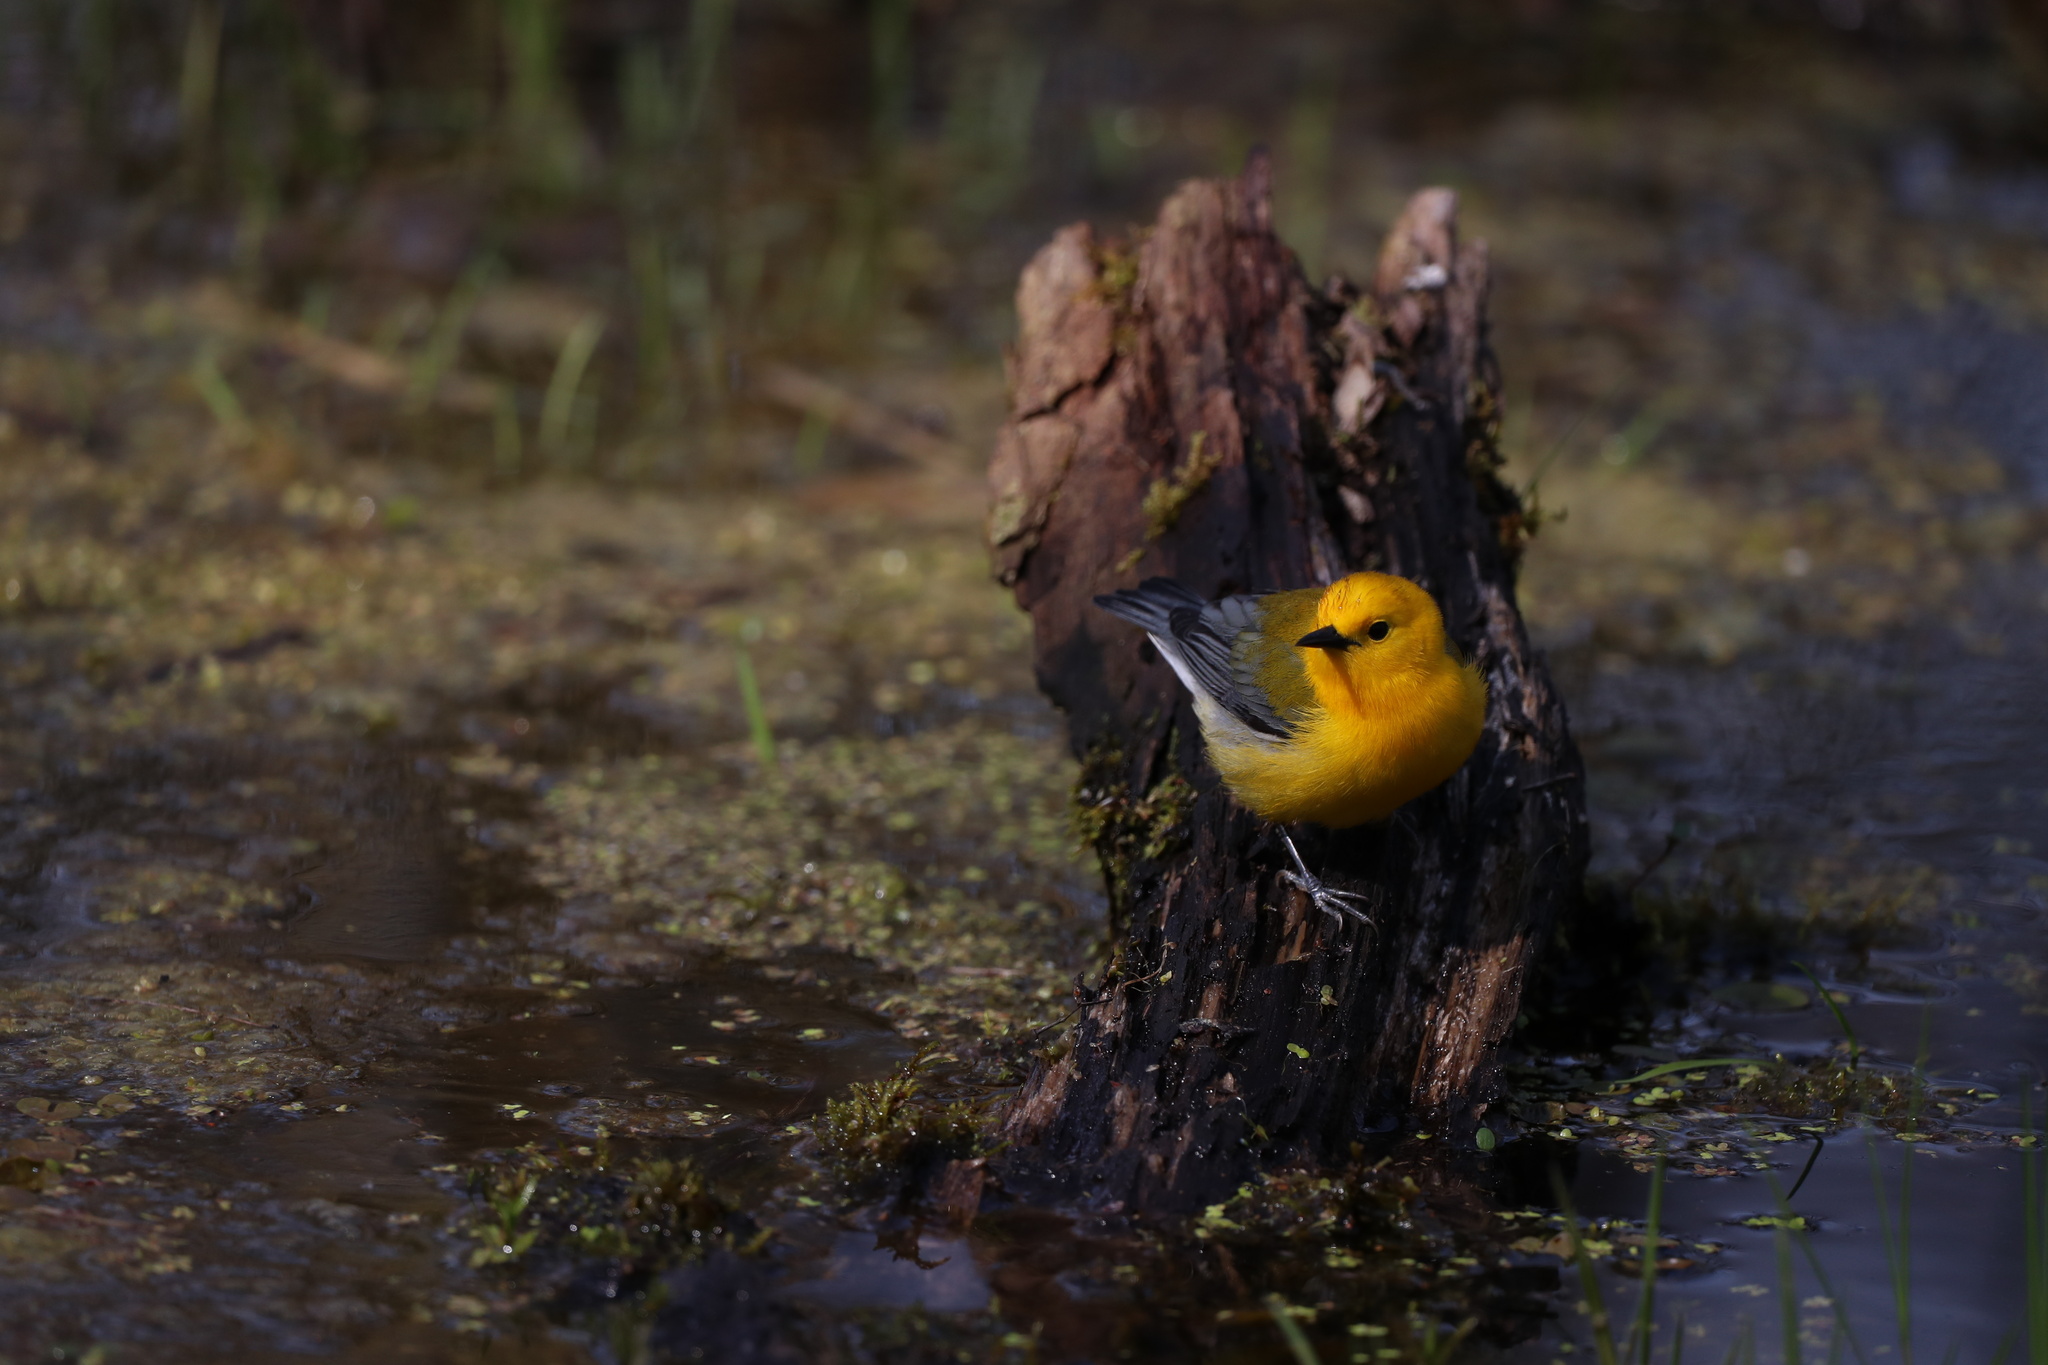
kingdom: Animalia
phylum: Chordata
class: Aves
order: Passeriformes
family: Parulidae
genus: Protonotaria
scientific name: Protonotaria citrea
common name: Prothonotary warbler
